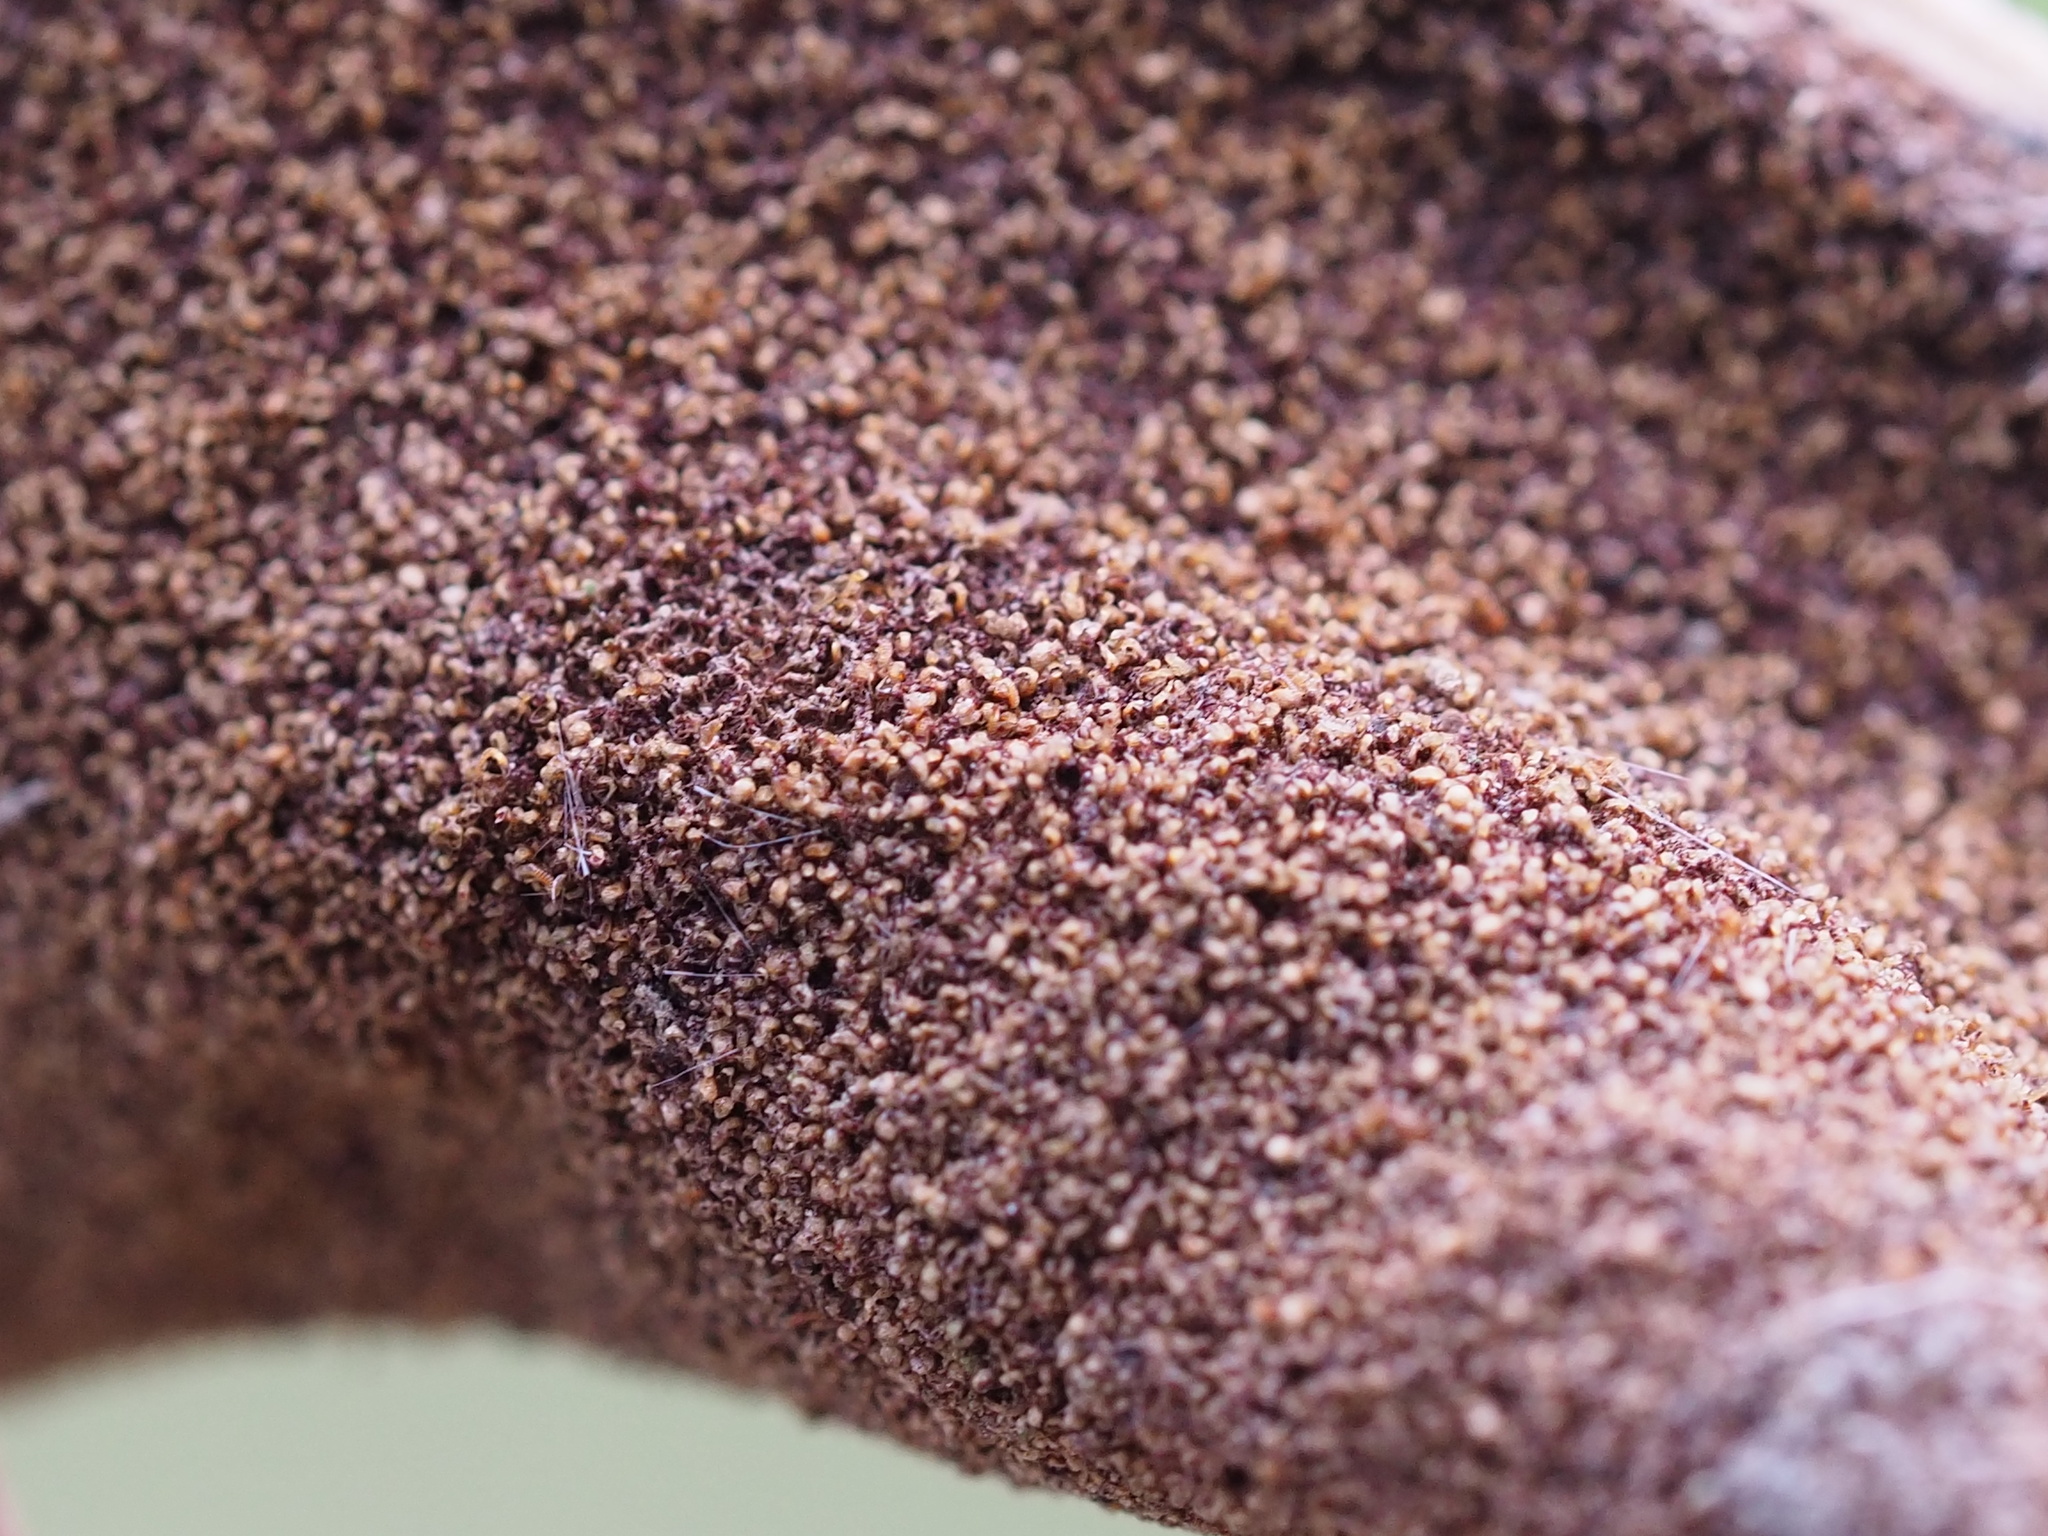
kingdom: Plantae
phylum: Tracheophyta
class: Polypodiopsida
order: Polypodiales
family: Pteridaceae
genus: Acrostichum
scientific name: Acrostichum aureum
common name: Leather fern
